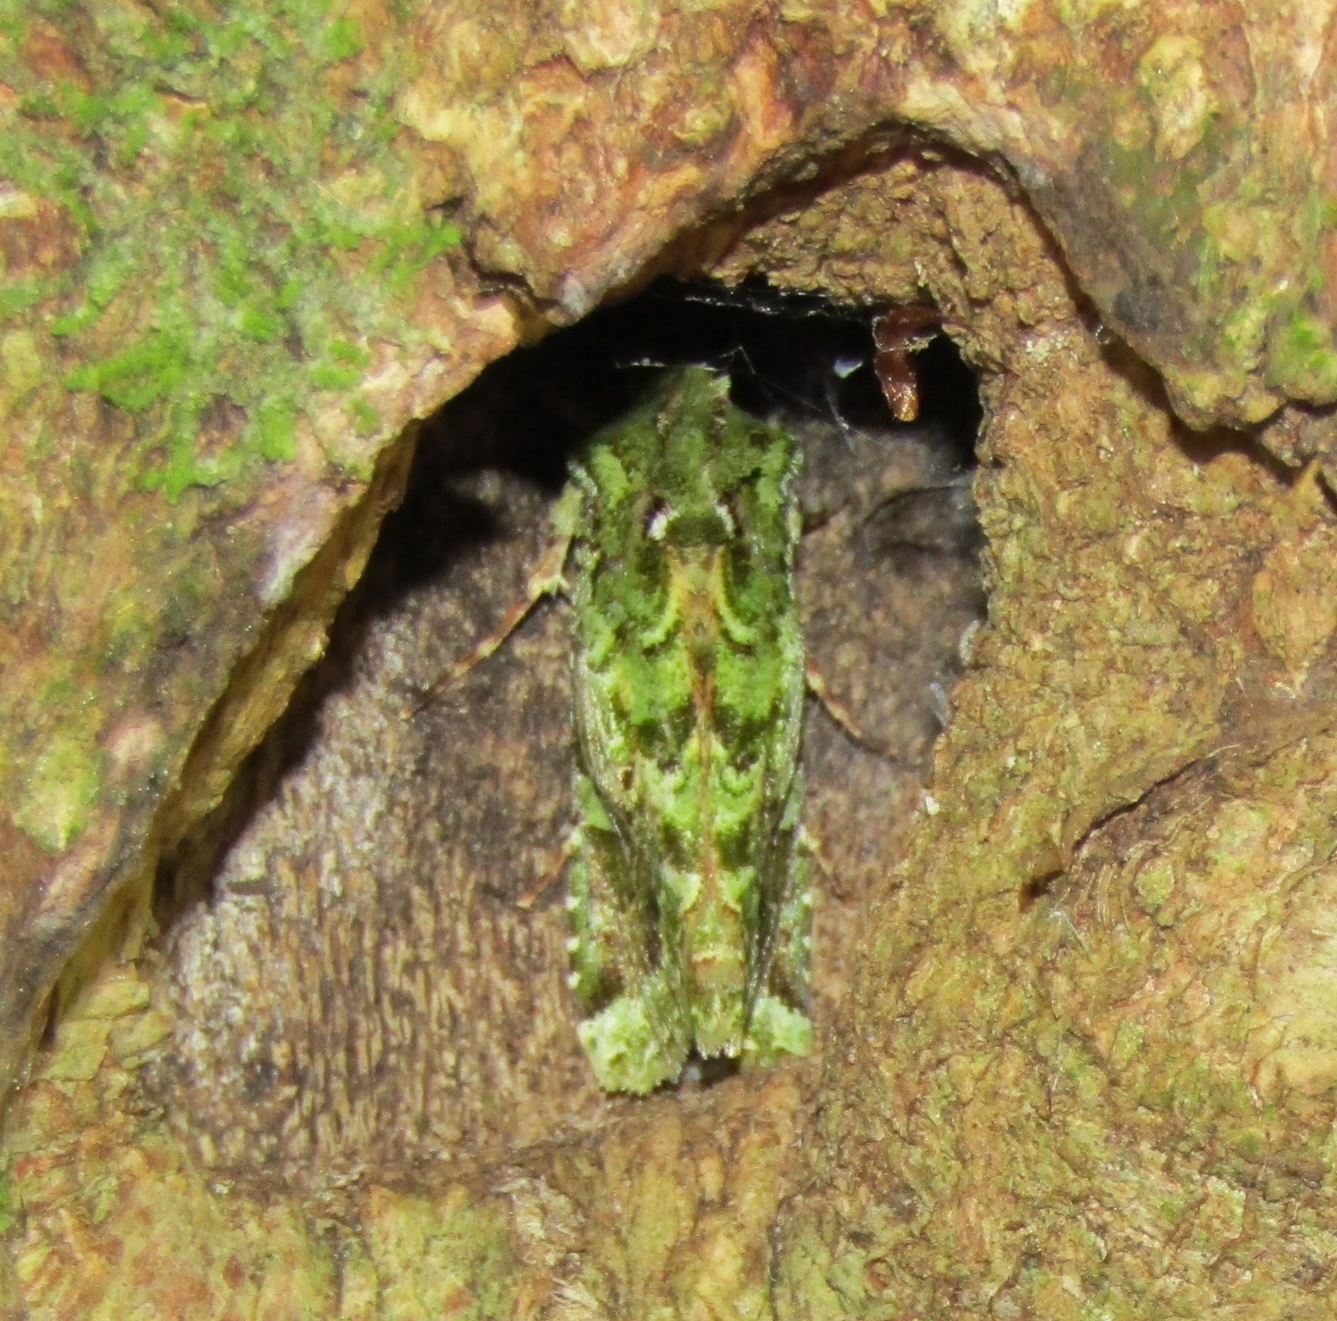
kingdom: Animalia
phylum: Arthropoda
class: Insecta
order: Lepidoptera
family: Noctuidae
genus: Feredayia
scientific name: Feredayia grammosa
